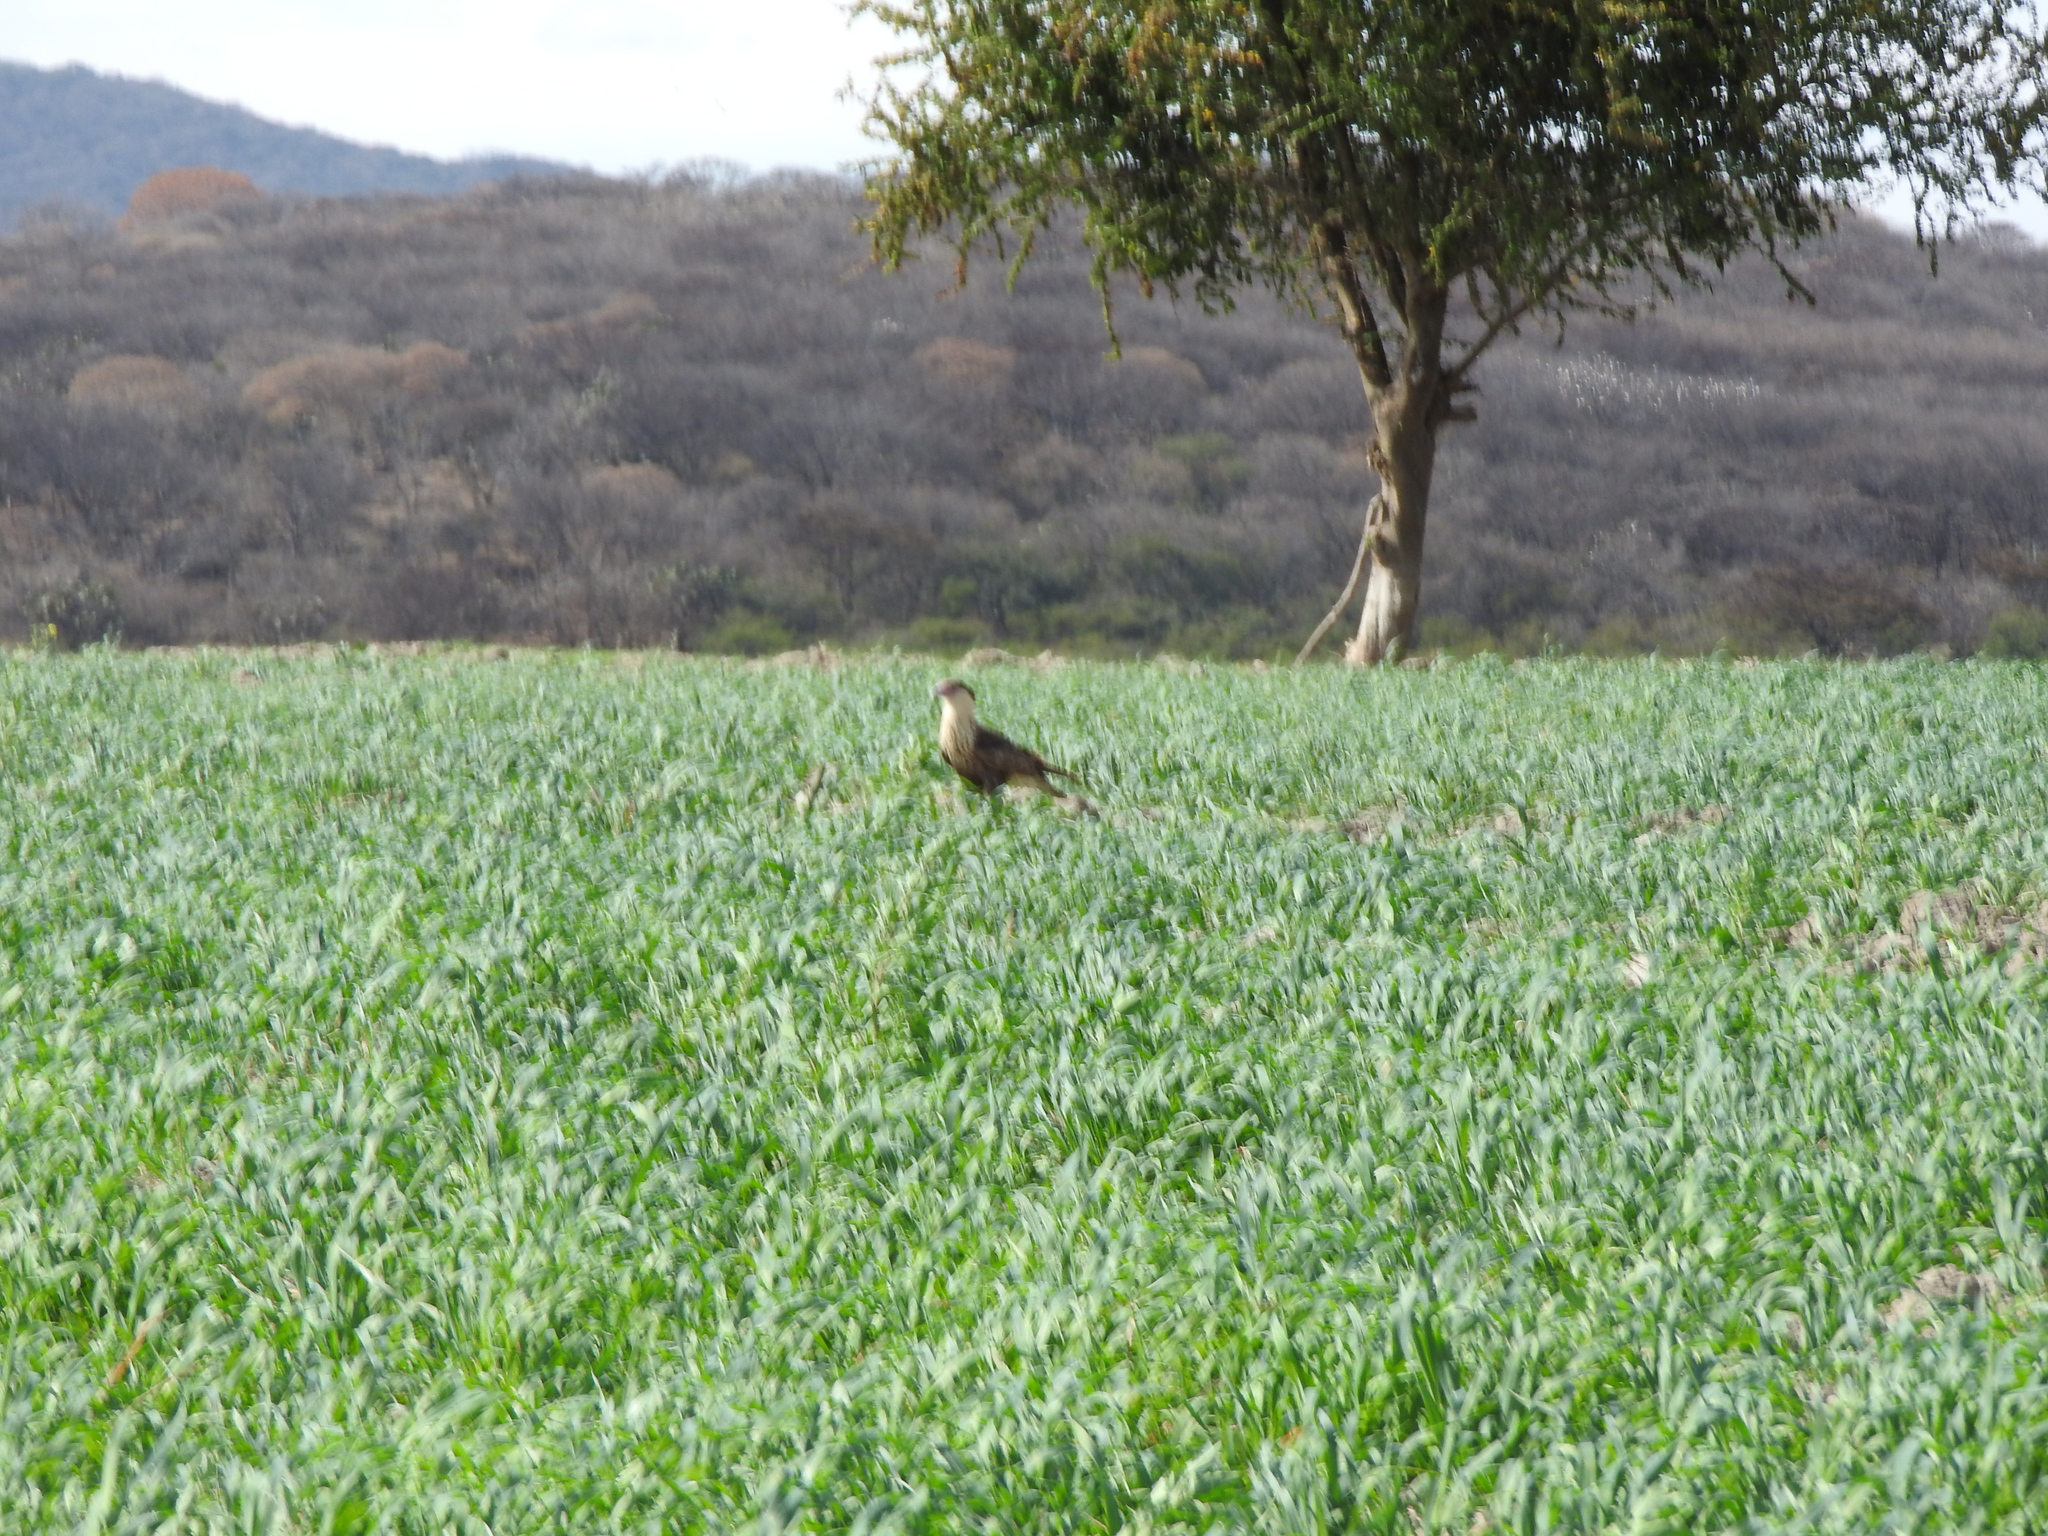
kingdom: Animalia
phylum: Chordata
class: Aves
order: Falconiformes
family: Falconidae
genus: Caracara
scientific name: Caracara plancus
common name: Southern caracara
